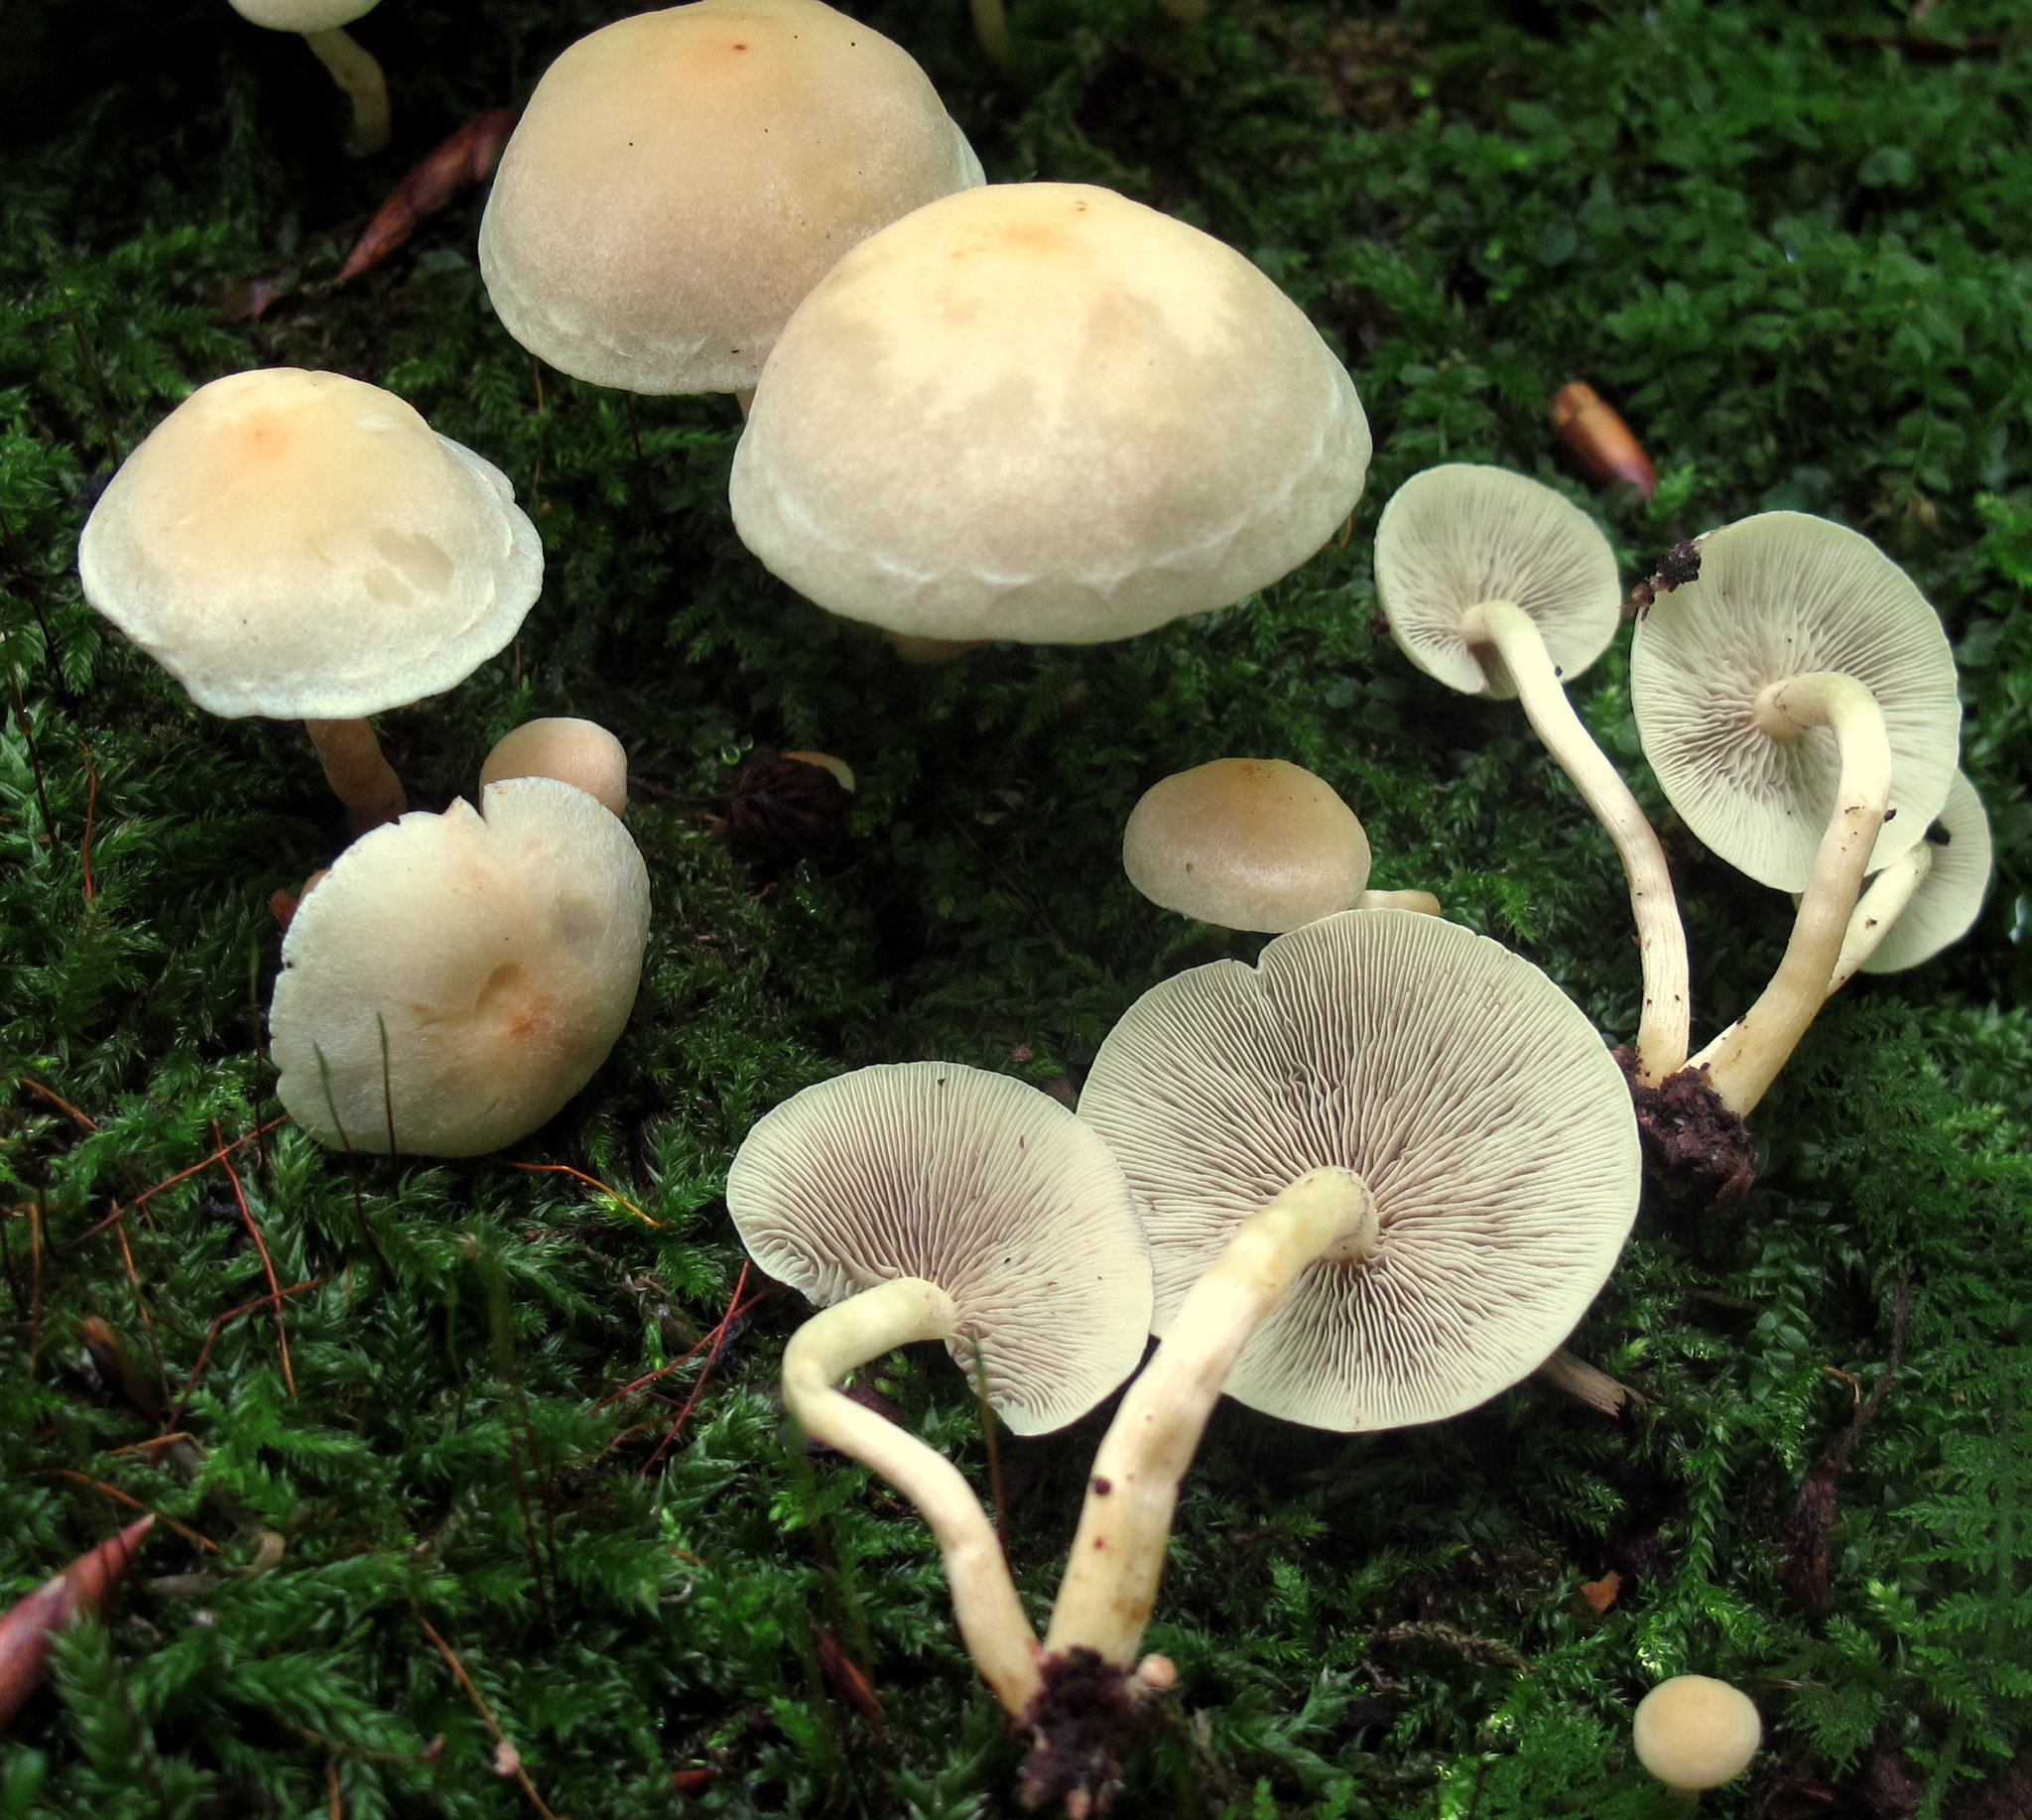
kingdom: Fungi
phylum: Basidiomycota
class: Agaricomycetes
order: Agaricales
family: Strophariaceae
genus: Hypholoma
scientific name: Hypholoma fasciculare
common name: Sulphur tuft
